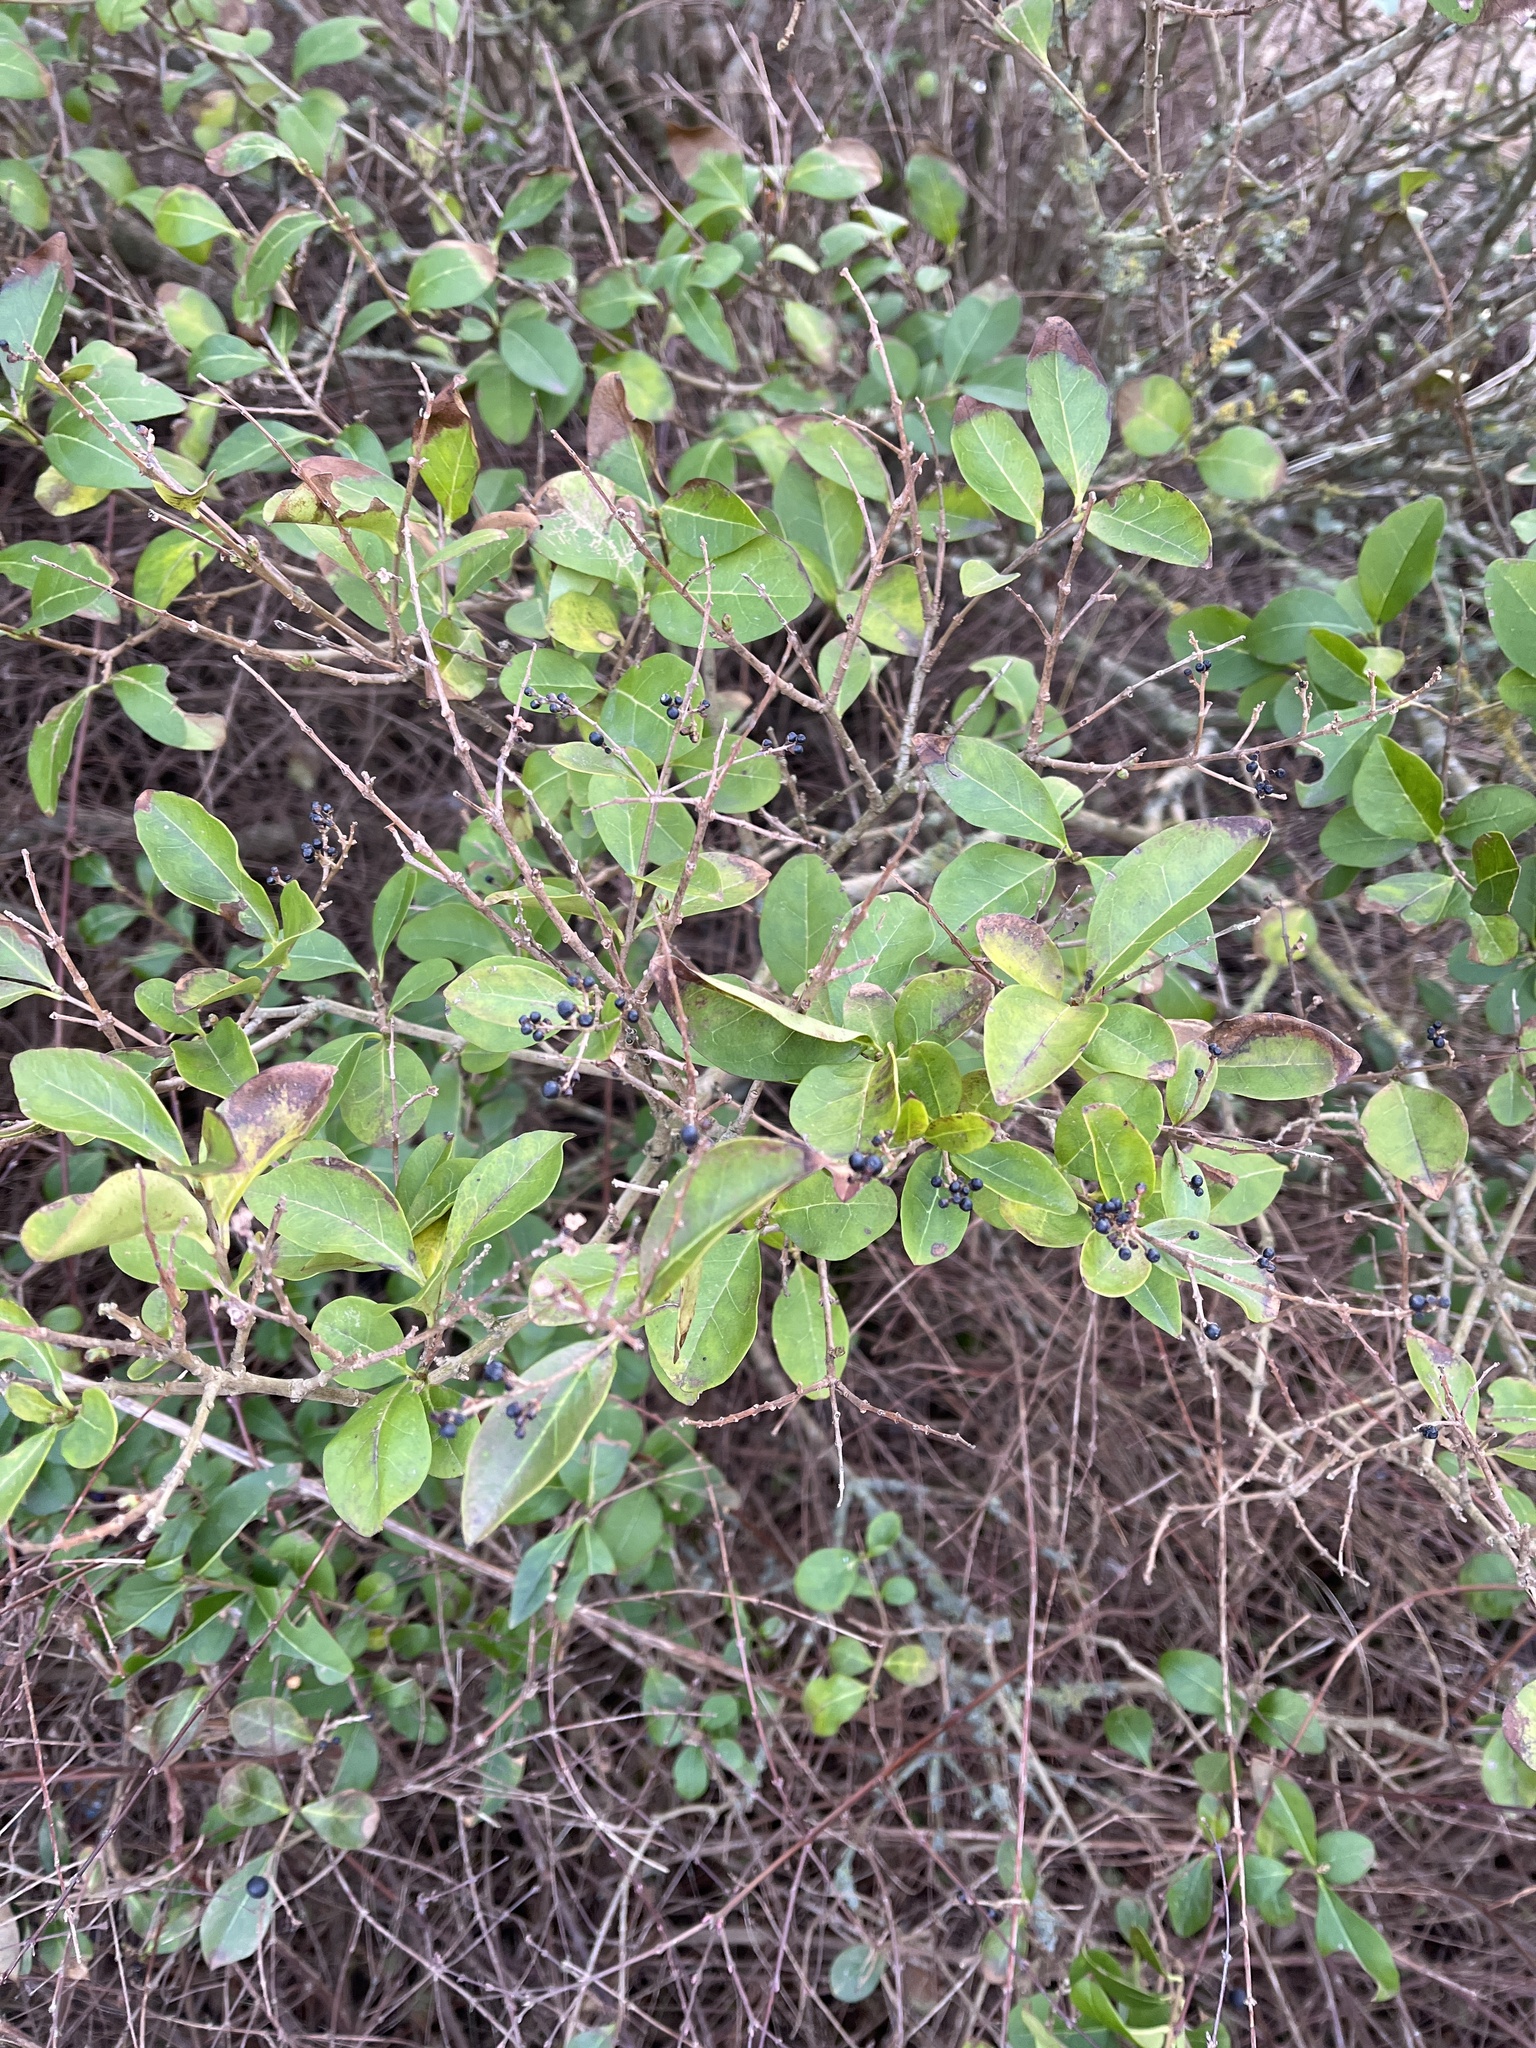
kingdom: Plantae
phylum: Tracheophyta
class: Magnoliopsida
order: Lamiales
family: Oleaceae
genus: Ligustrum
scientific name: Ligustrum ovalifolium
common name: California privet
